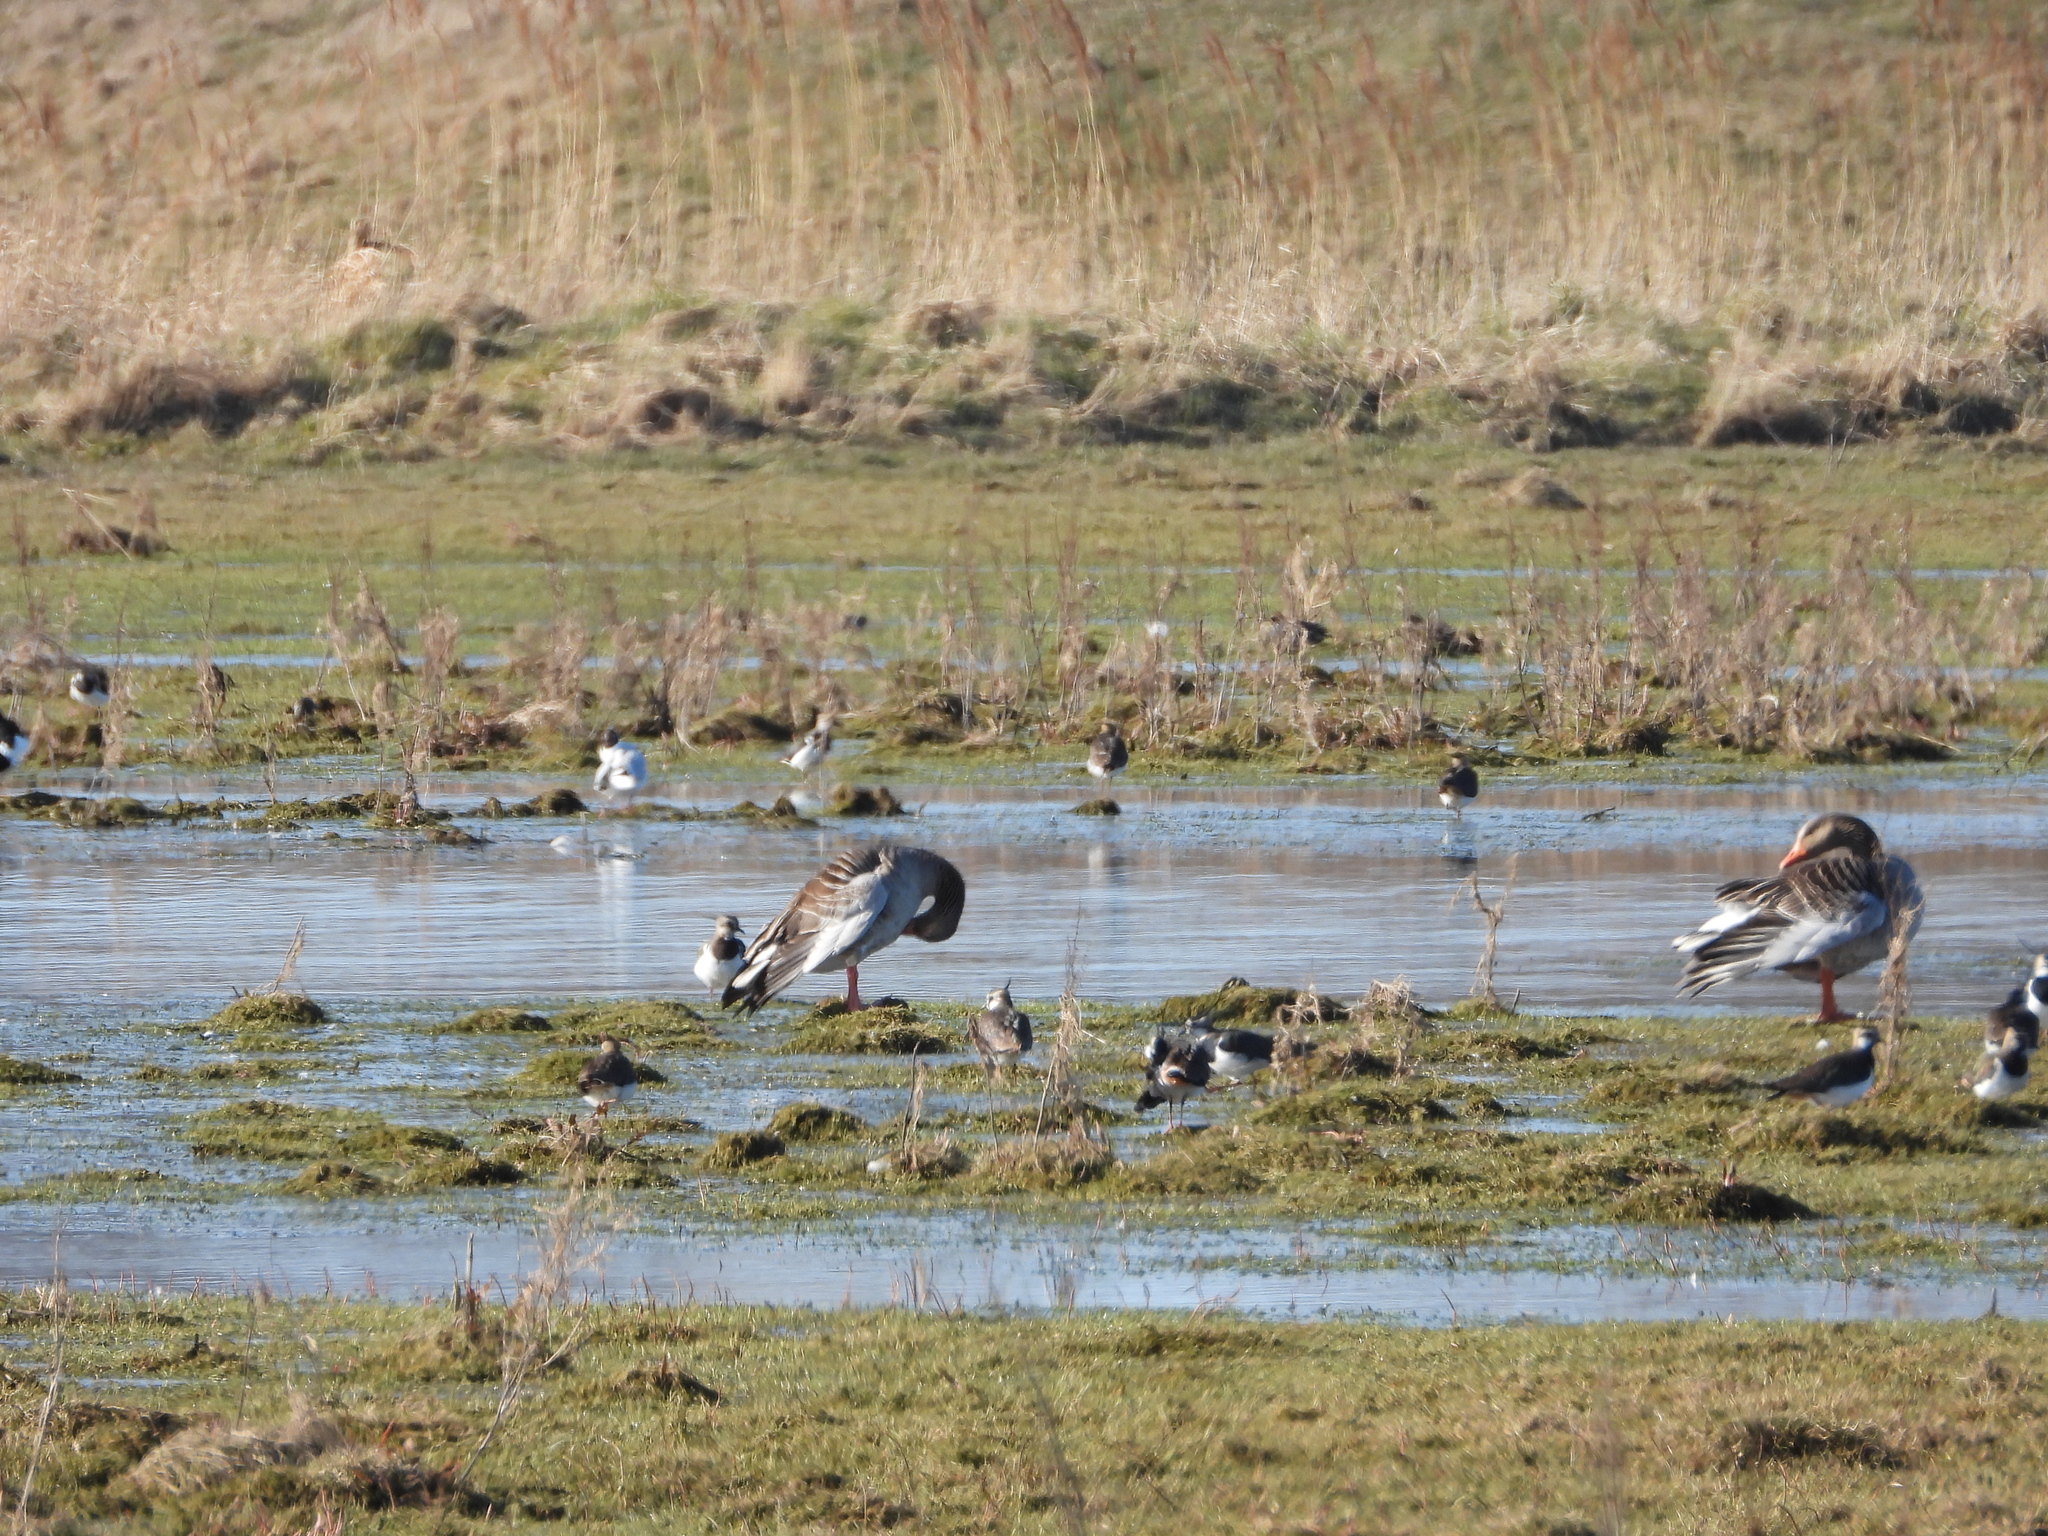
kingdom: Animalia
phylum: Chordata
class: Aves
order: Anseriformes
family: Anatidae
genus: Anser
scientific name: Anser anser
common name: Greylag goose
